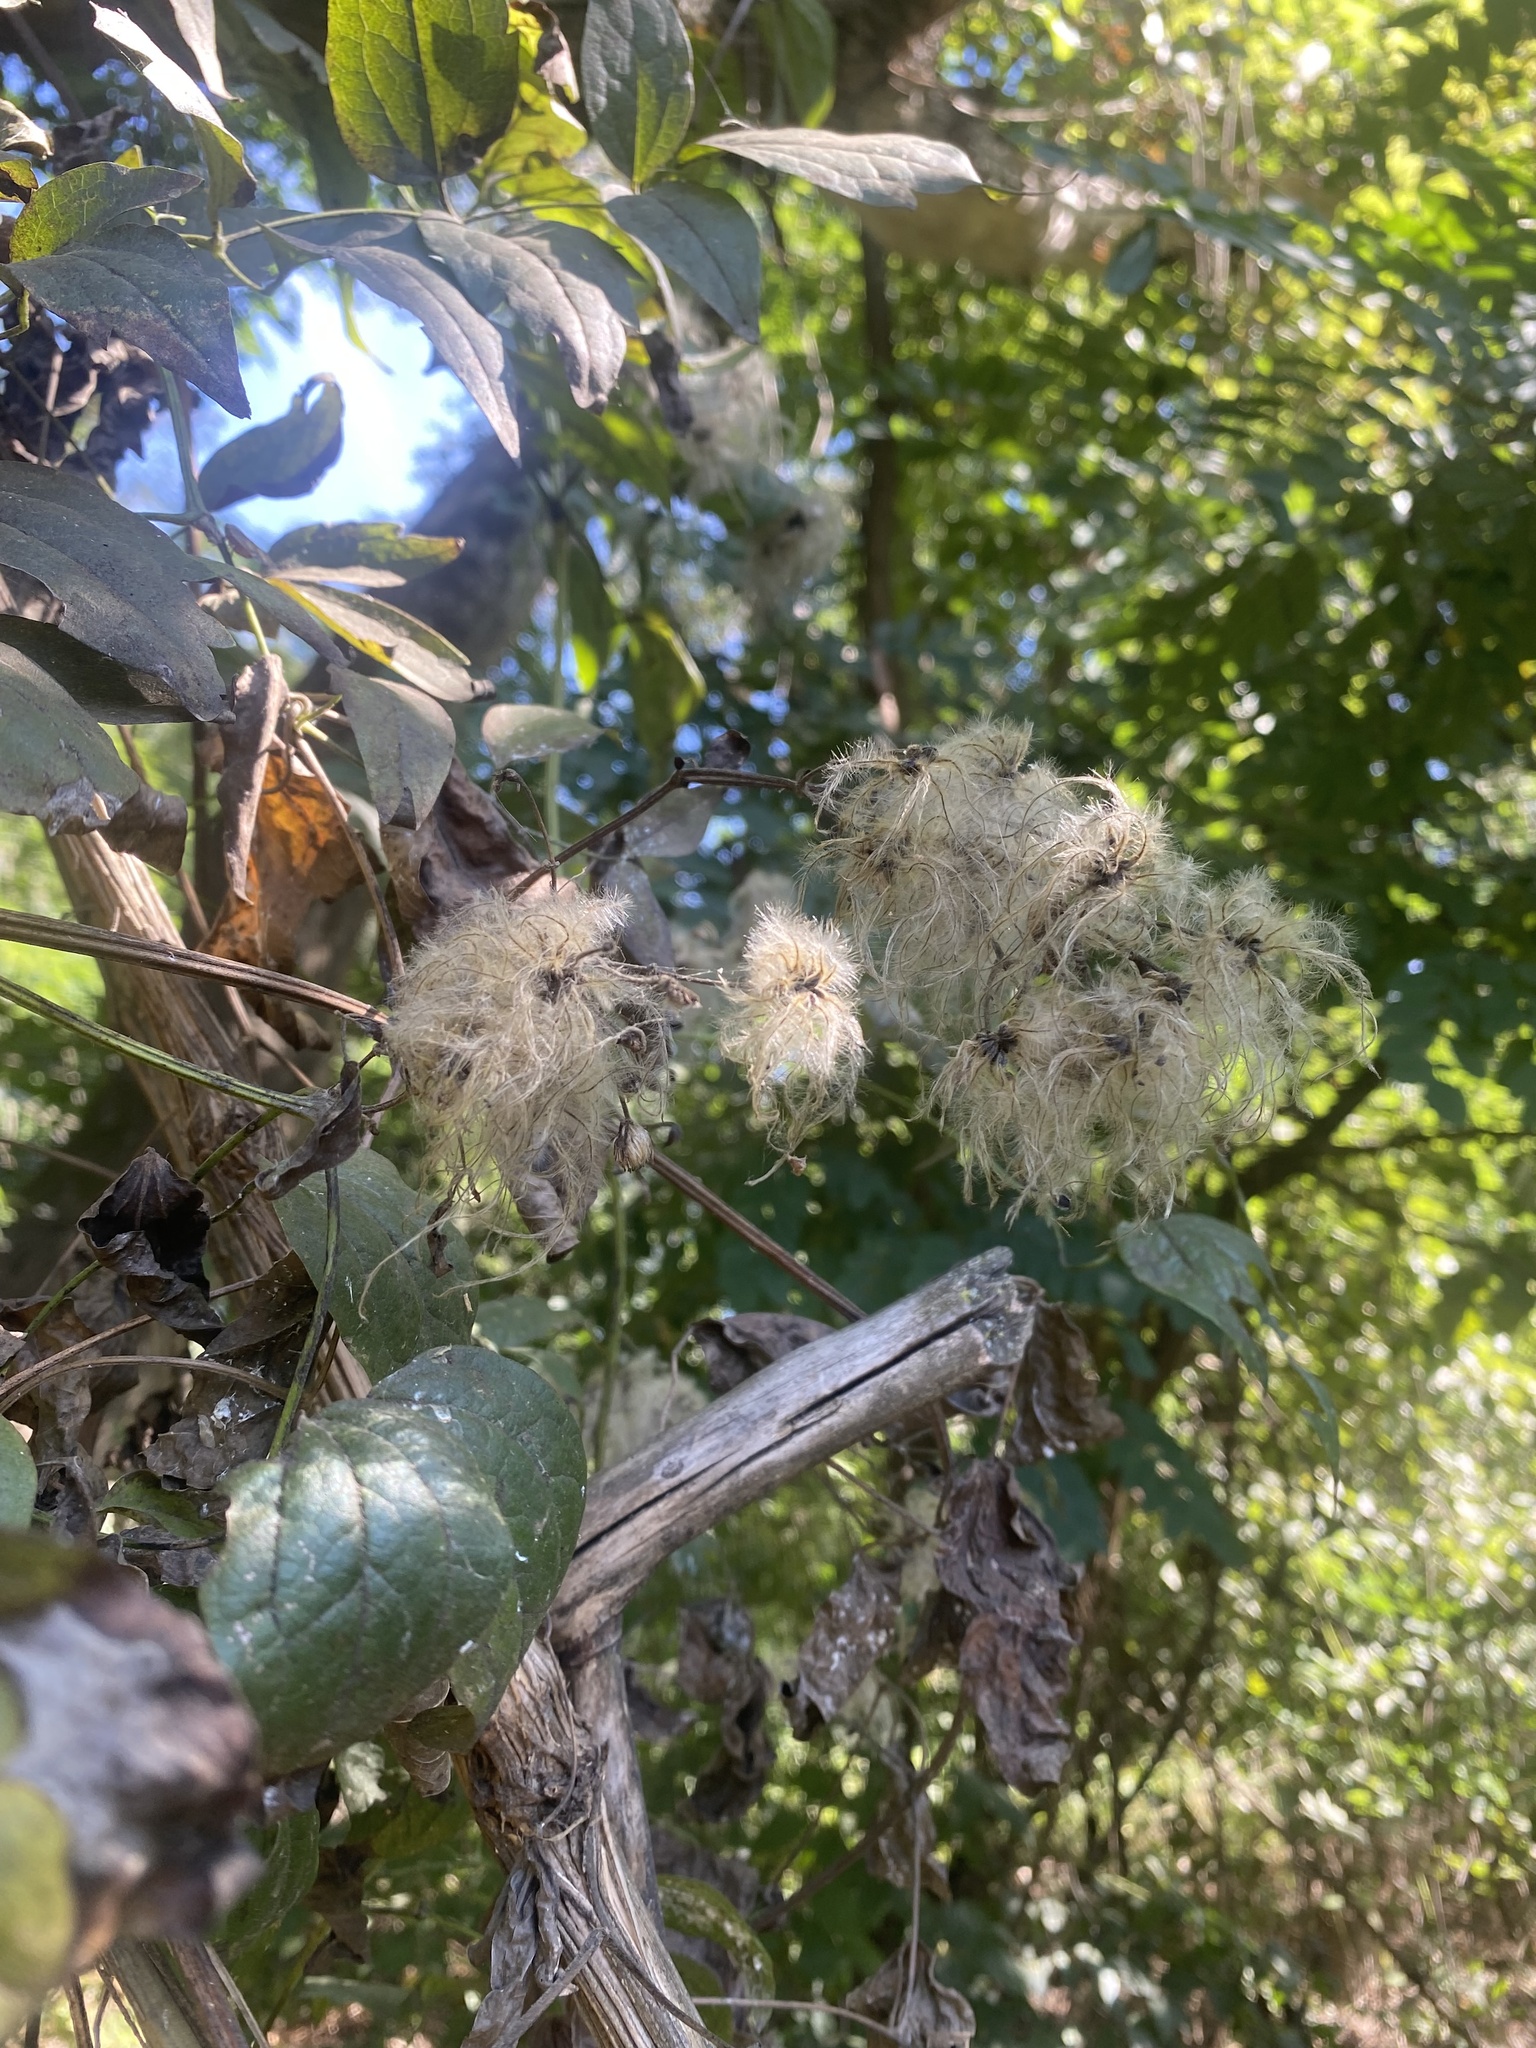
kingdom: Plantae
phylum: Tracheophyta
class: Magnoliopsida
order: Ranunculales
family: Ranunculaceae
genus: Clematis
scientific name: Clematis vitalba
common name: Evergreen clematis
